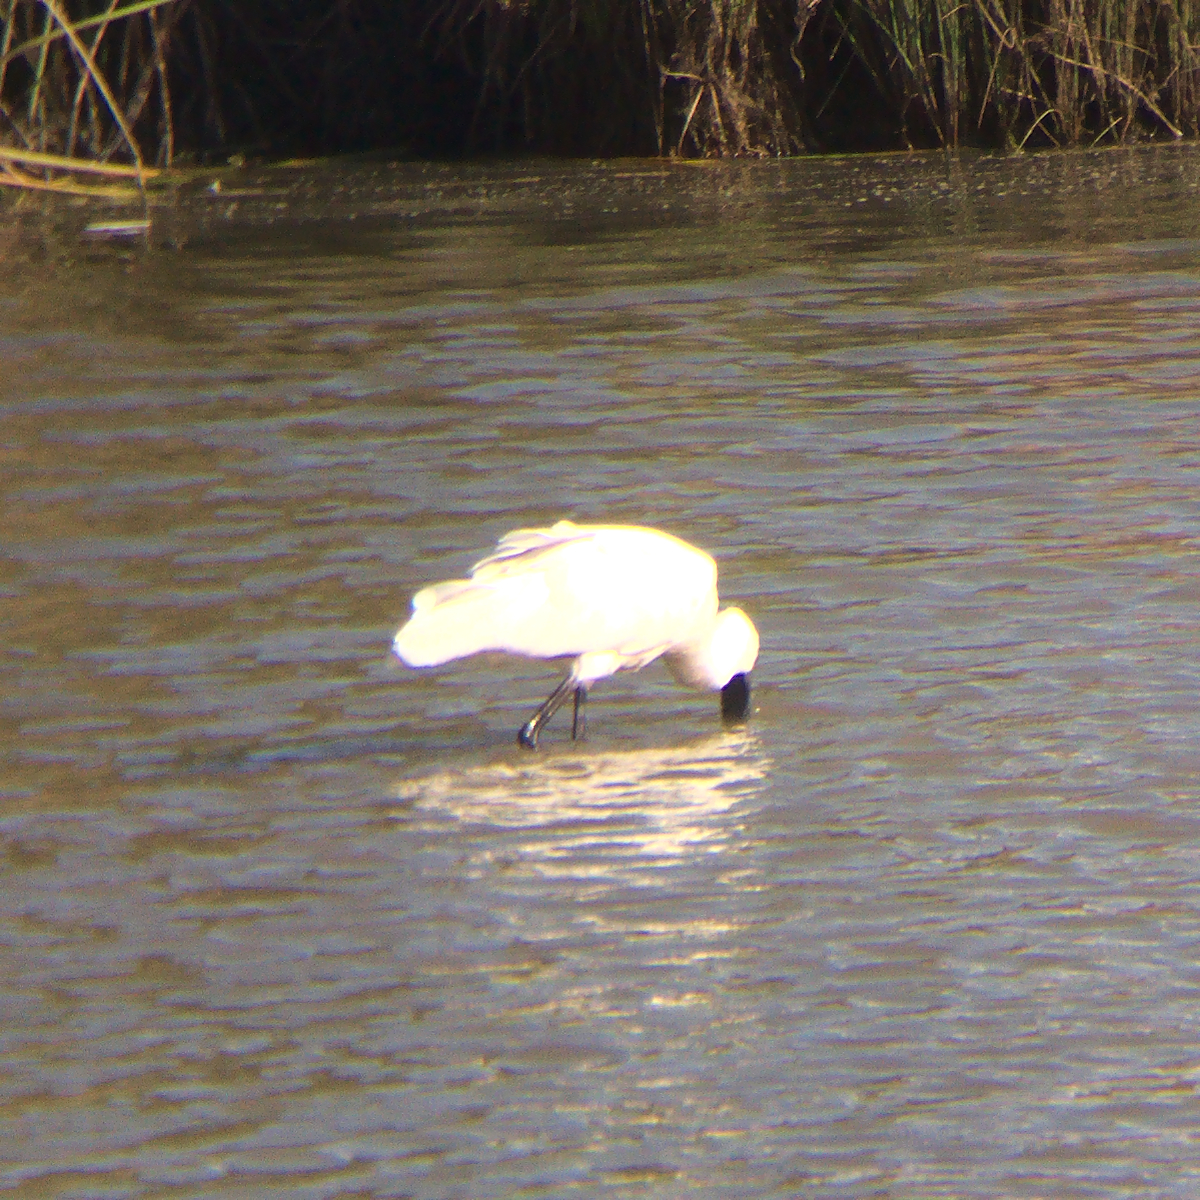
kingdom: Animalia
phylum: Chordata
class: Aves
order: Pelecaniformes
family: Threskiornithidae
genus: Platalea
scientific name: Platalea regia
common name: Royal spoonbill
